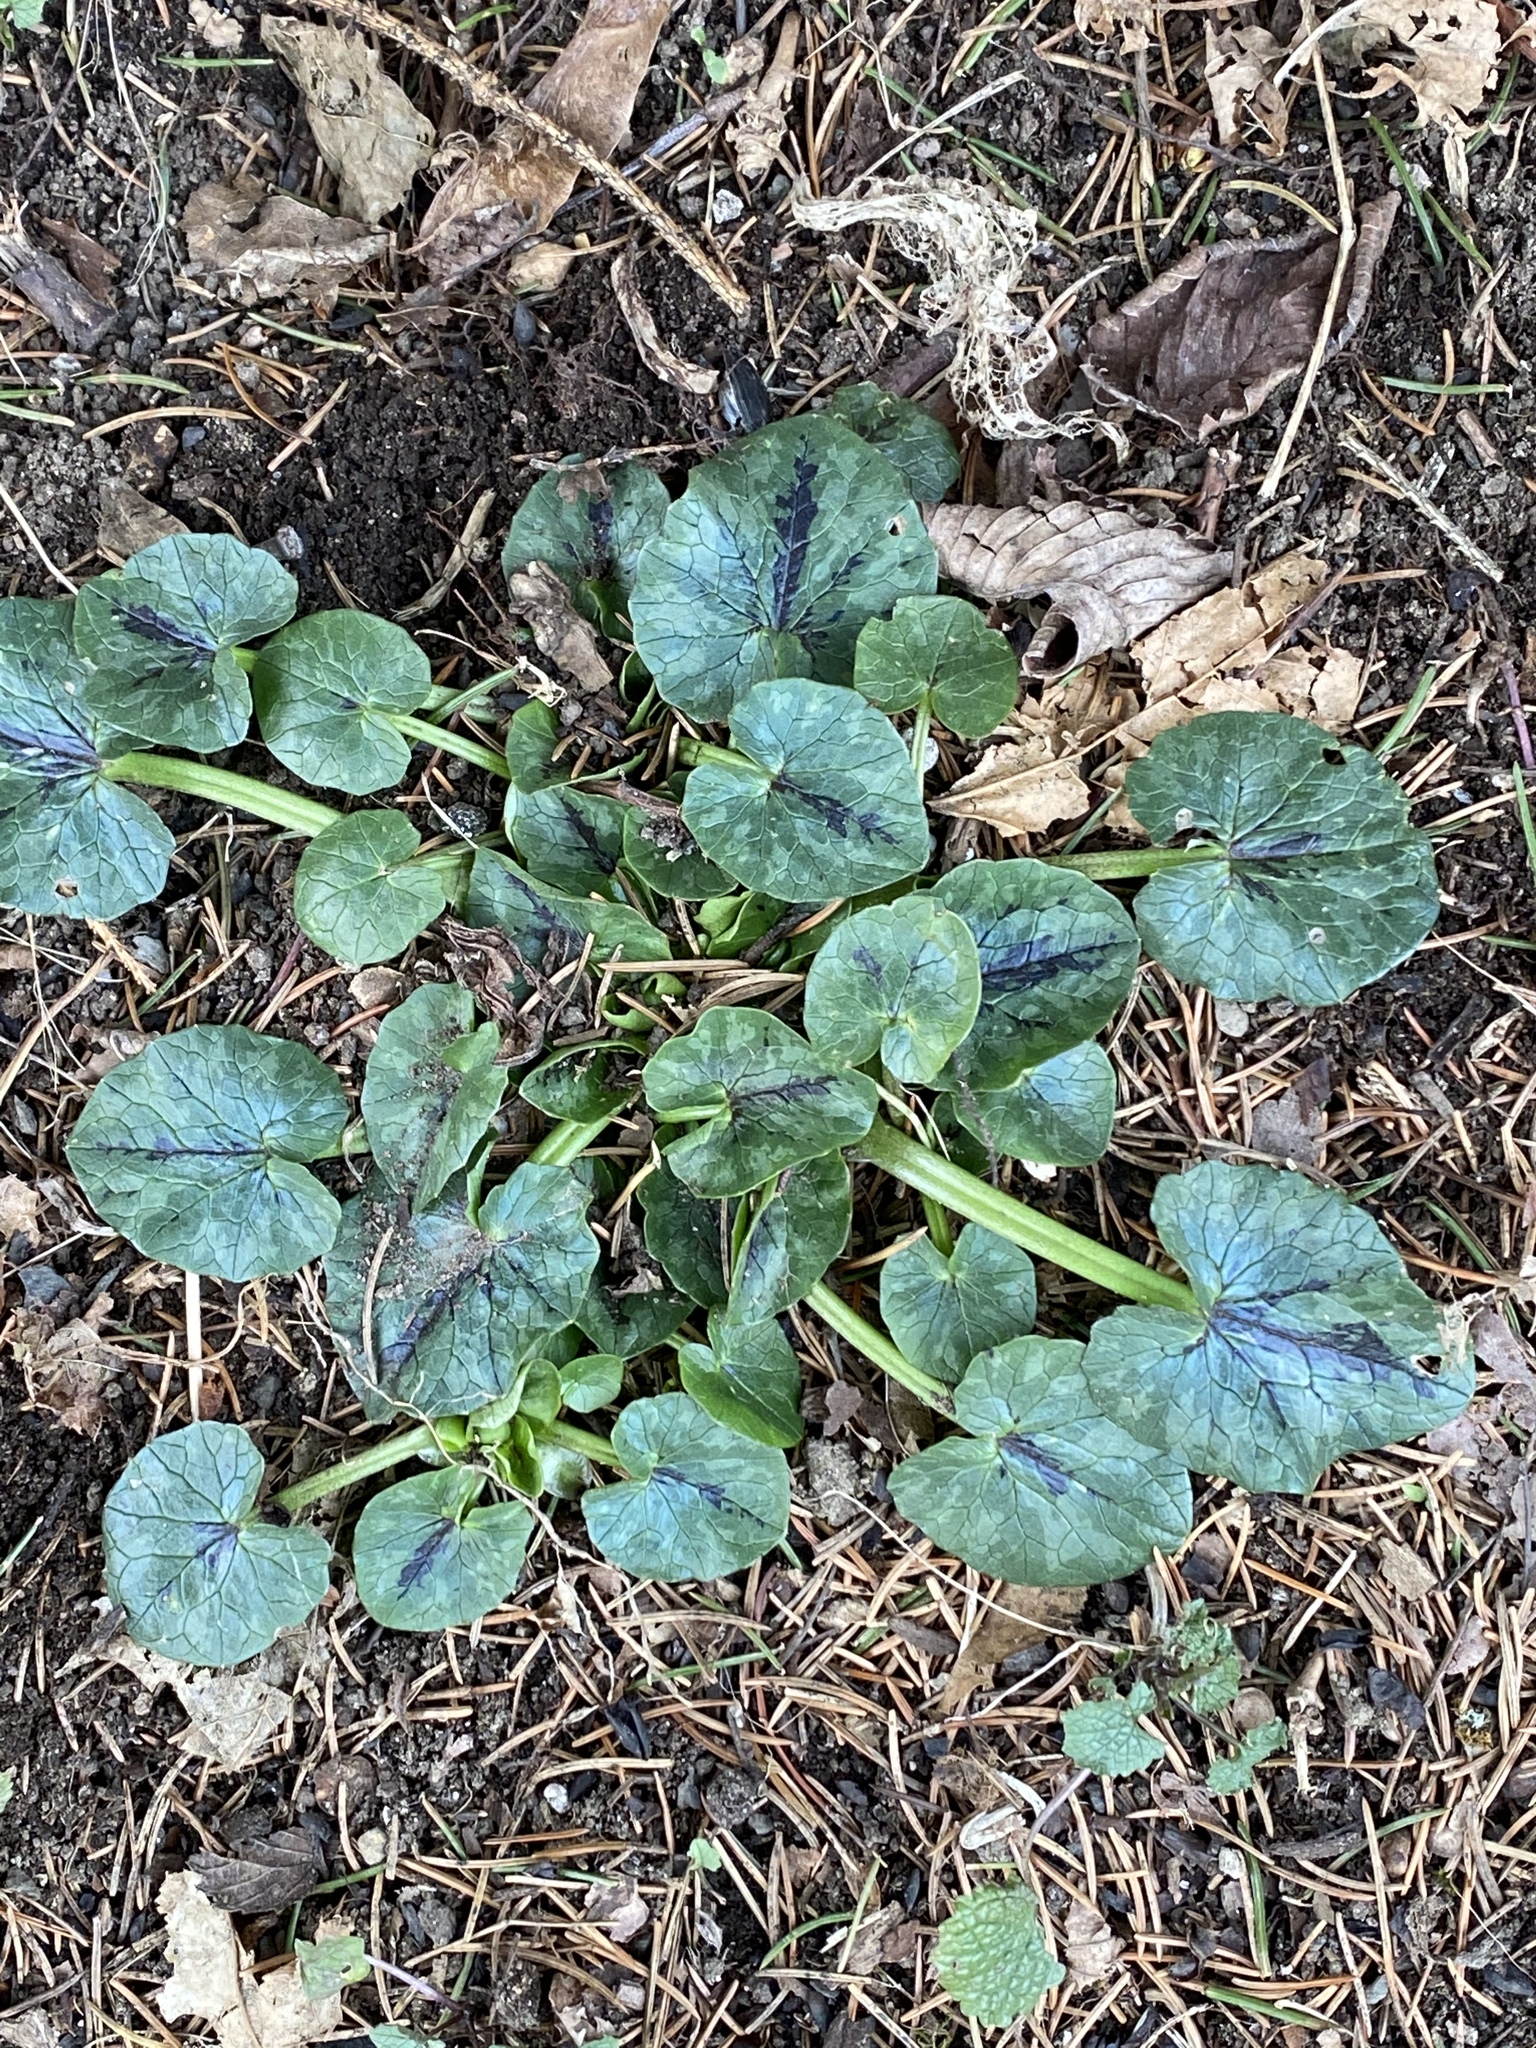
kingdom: Plantae
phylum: Tracheophyta
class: Magnoliopsida
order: Ranunculales
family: Ranunculaceae
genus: Ficaria
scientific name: Ficaria verna
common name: Lesser celandine
